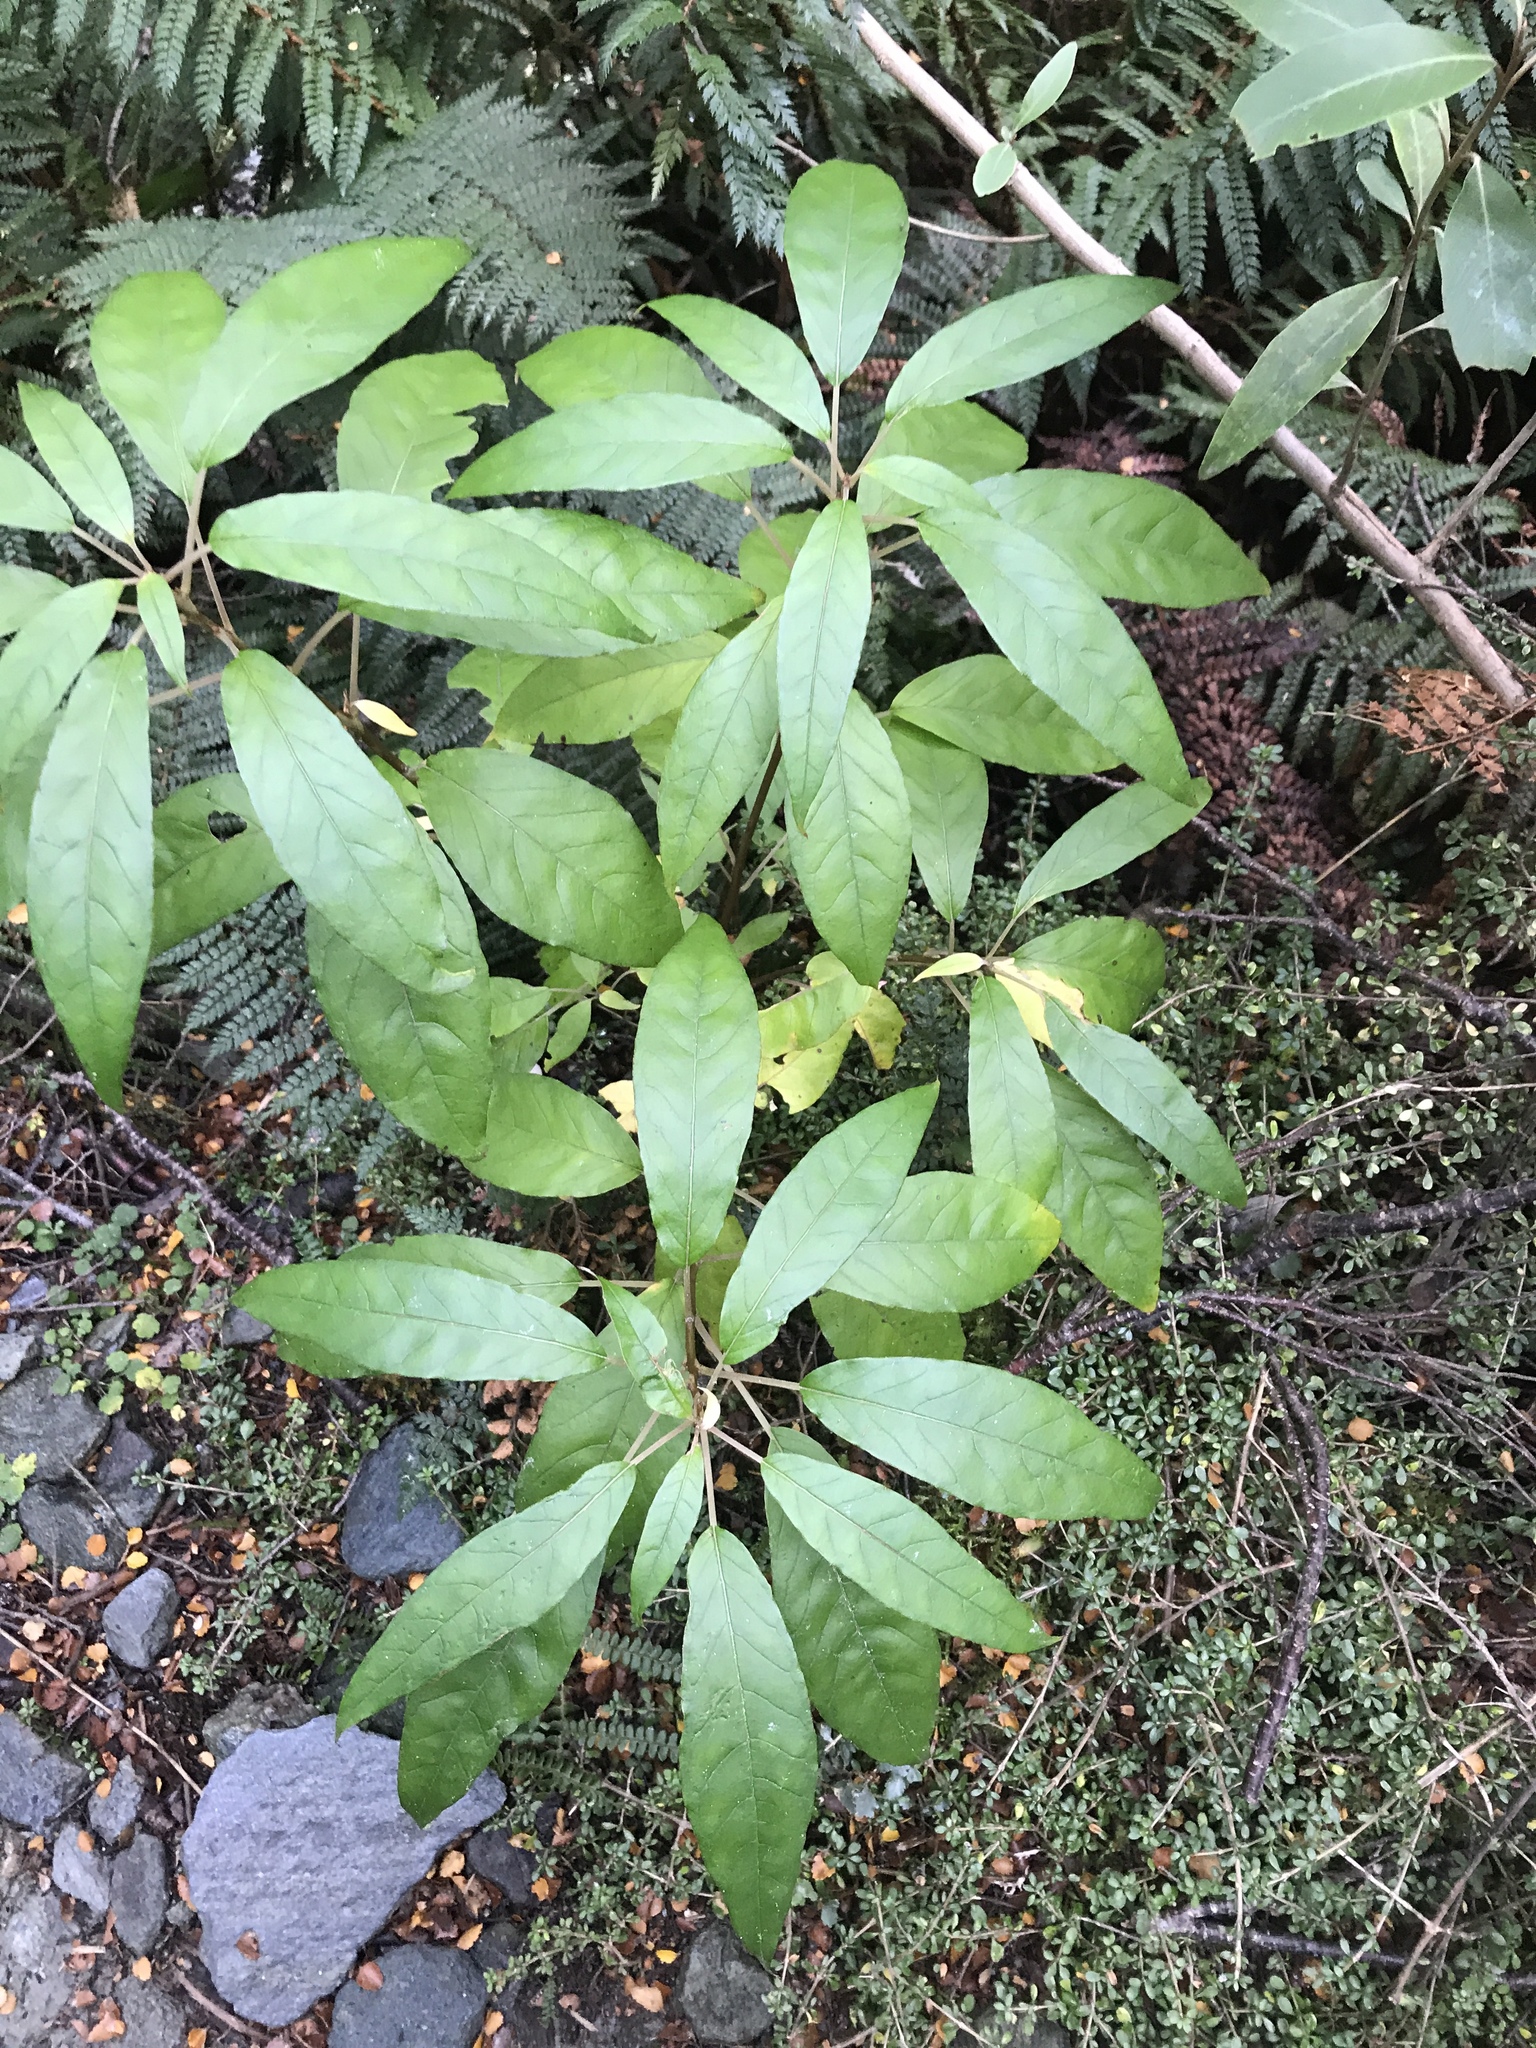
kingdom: Plantae
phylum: Tracheophyta
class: Magnoliopsida
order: Myrtales
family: Onagraceae
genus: Fuchsia
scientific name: Fuchsia excorticata
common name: Tree fuchsia
